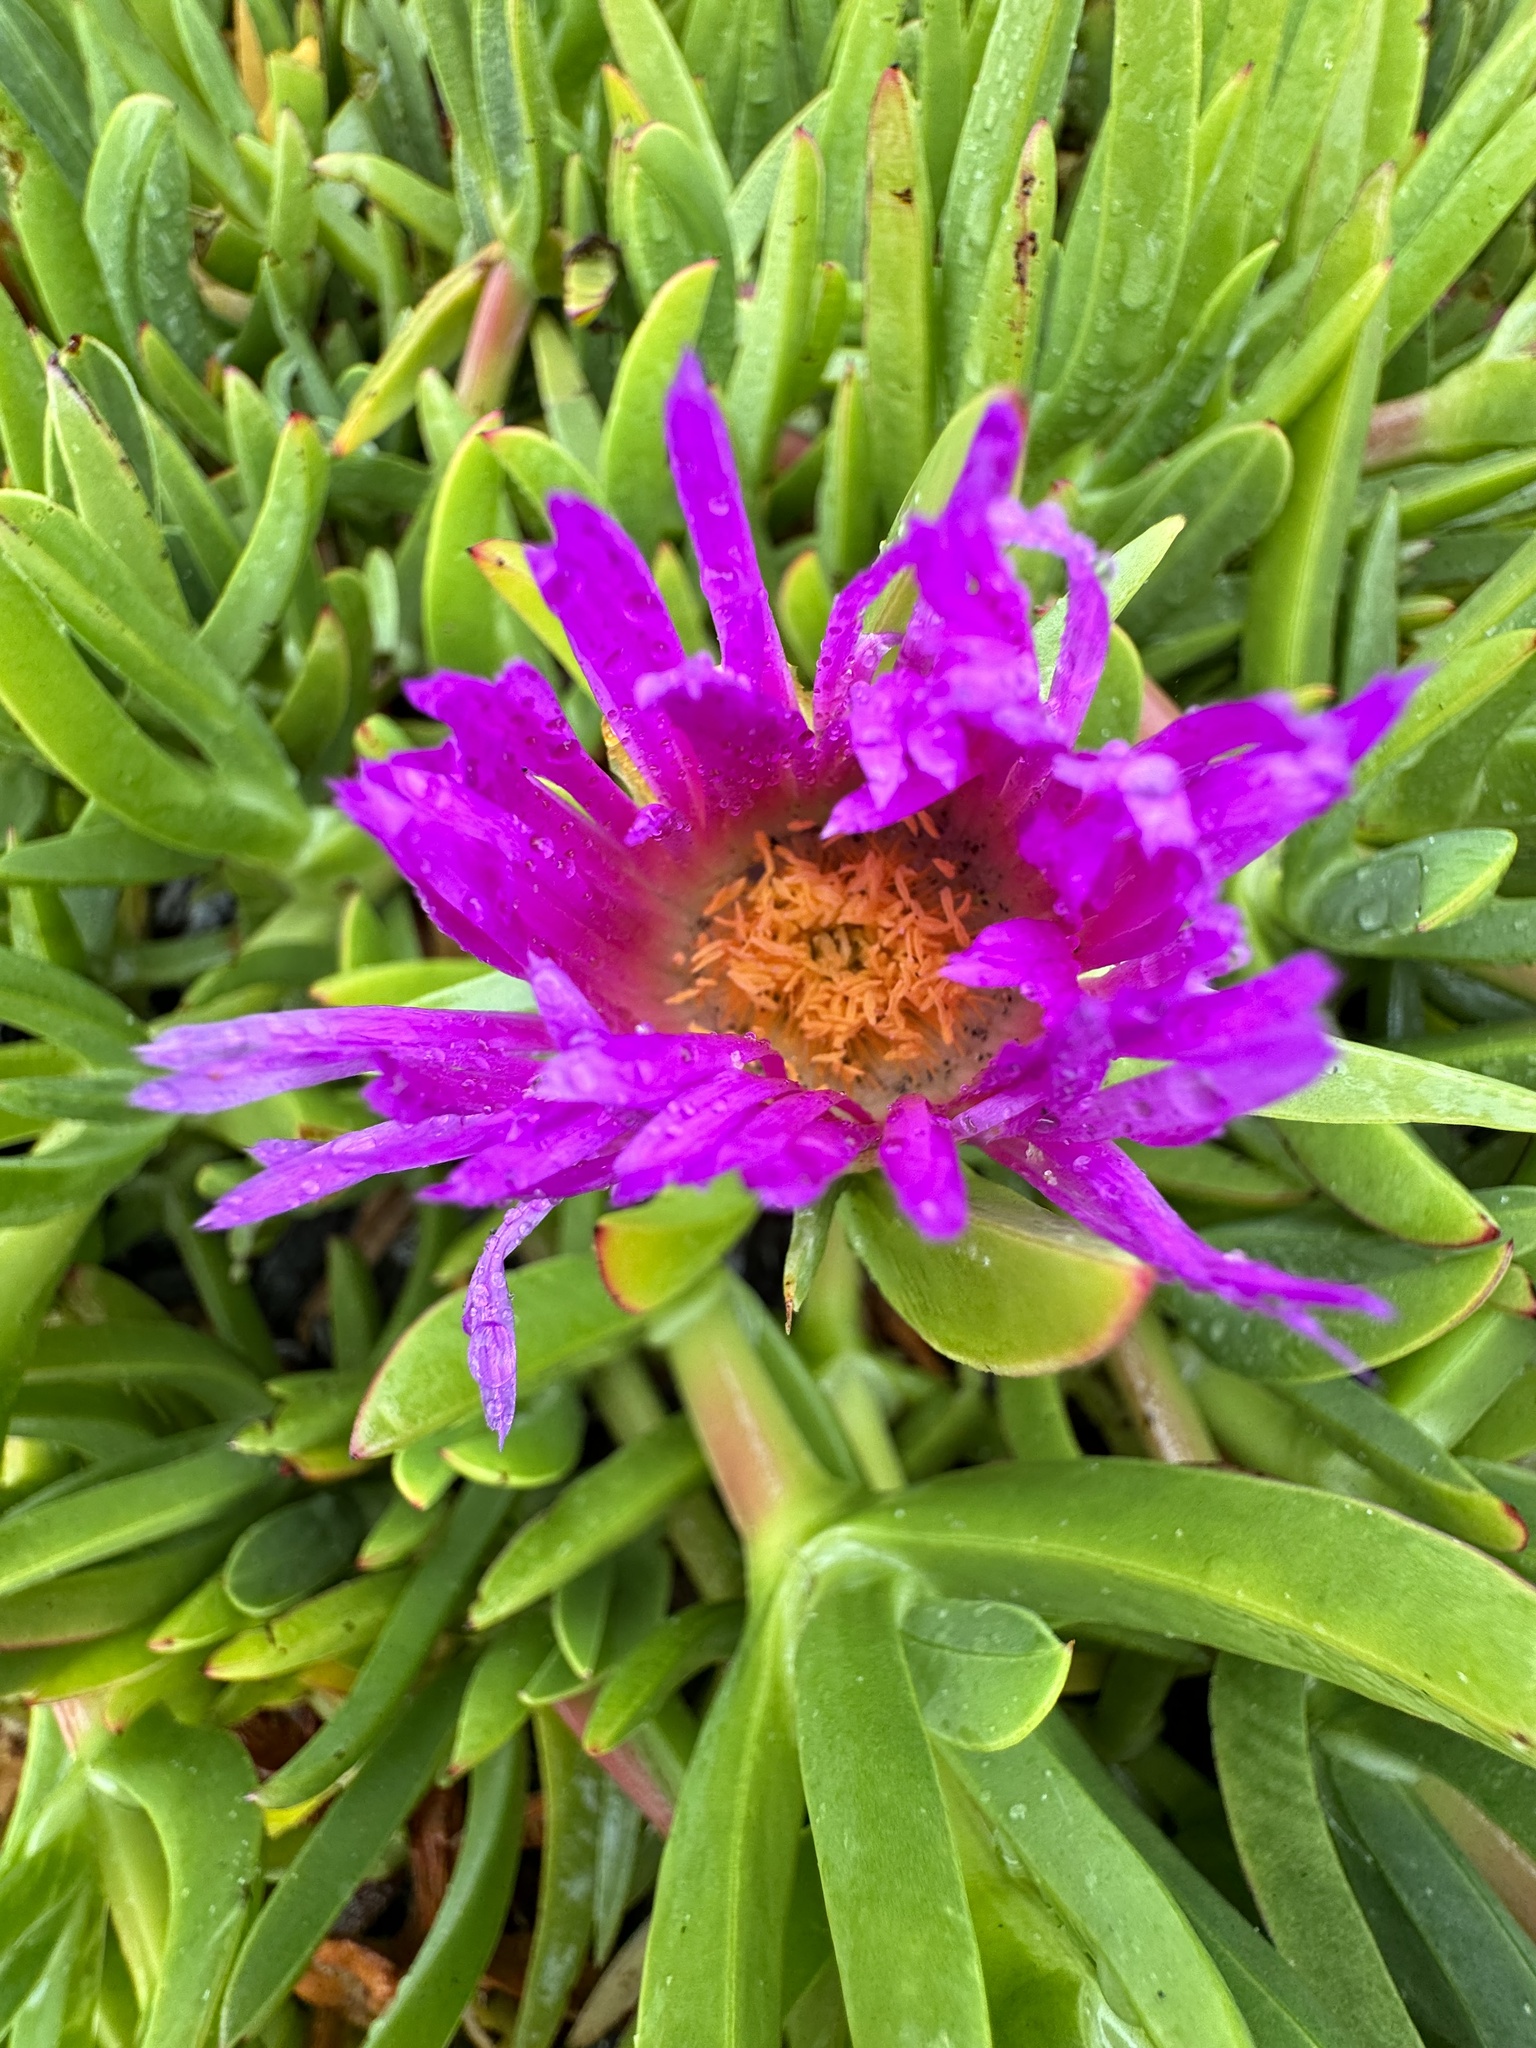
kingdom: Plantae
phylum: Tracheophyta
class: Magnoliopsida
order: Caryophyllales
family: Aizoaceae
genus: Carpobrotus
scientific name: Carpobrotus chilensis
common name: Sea fig
